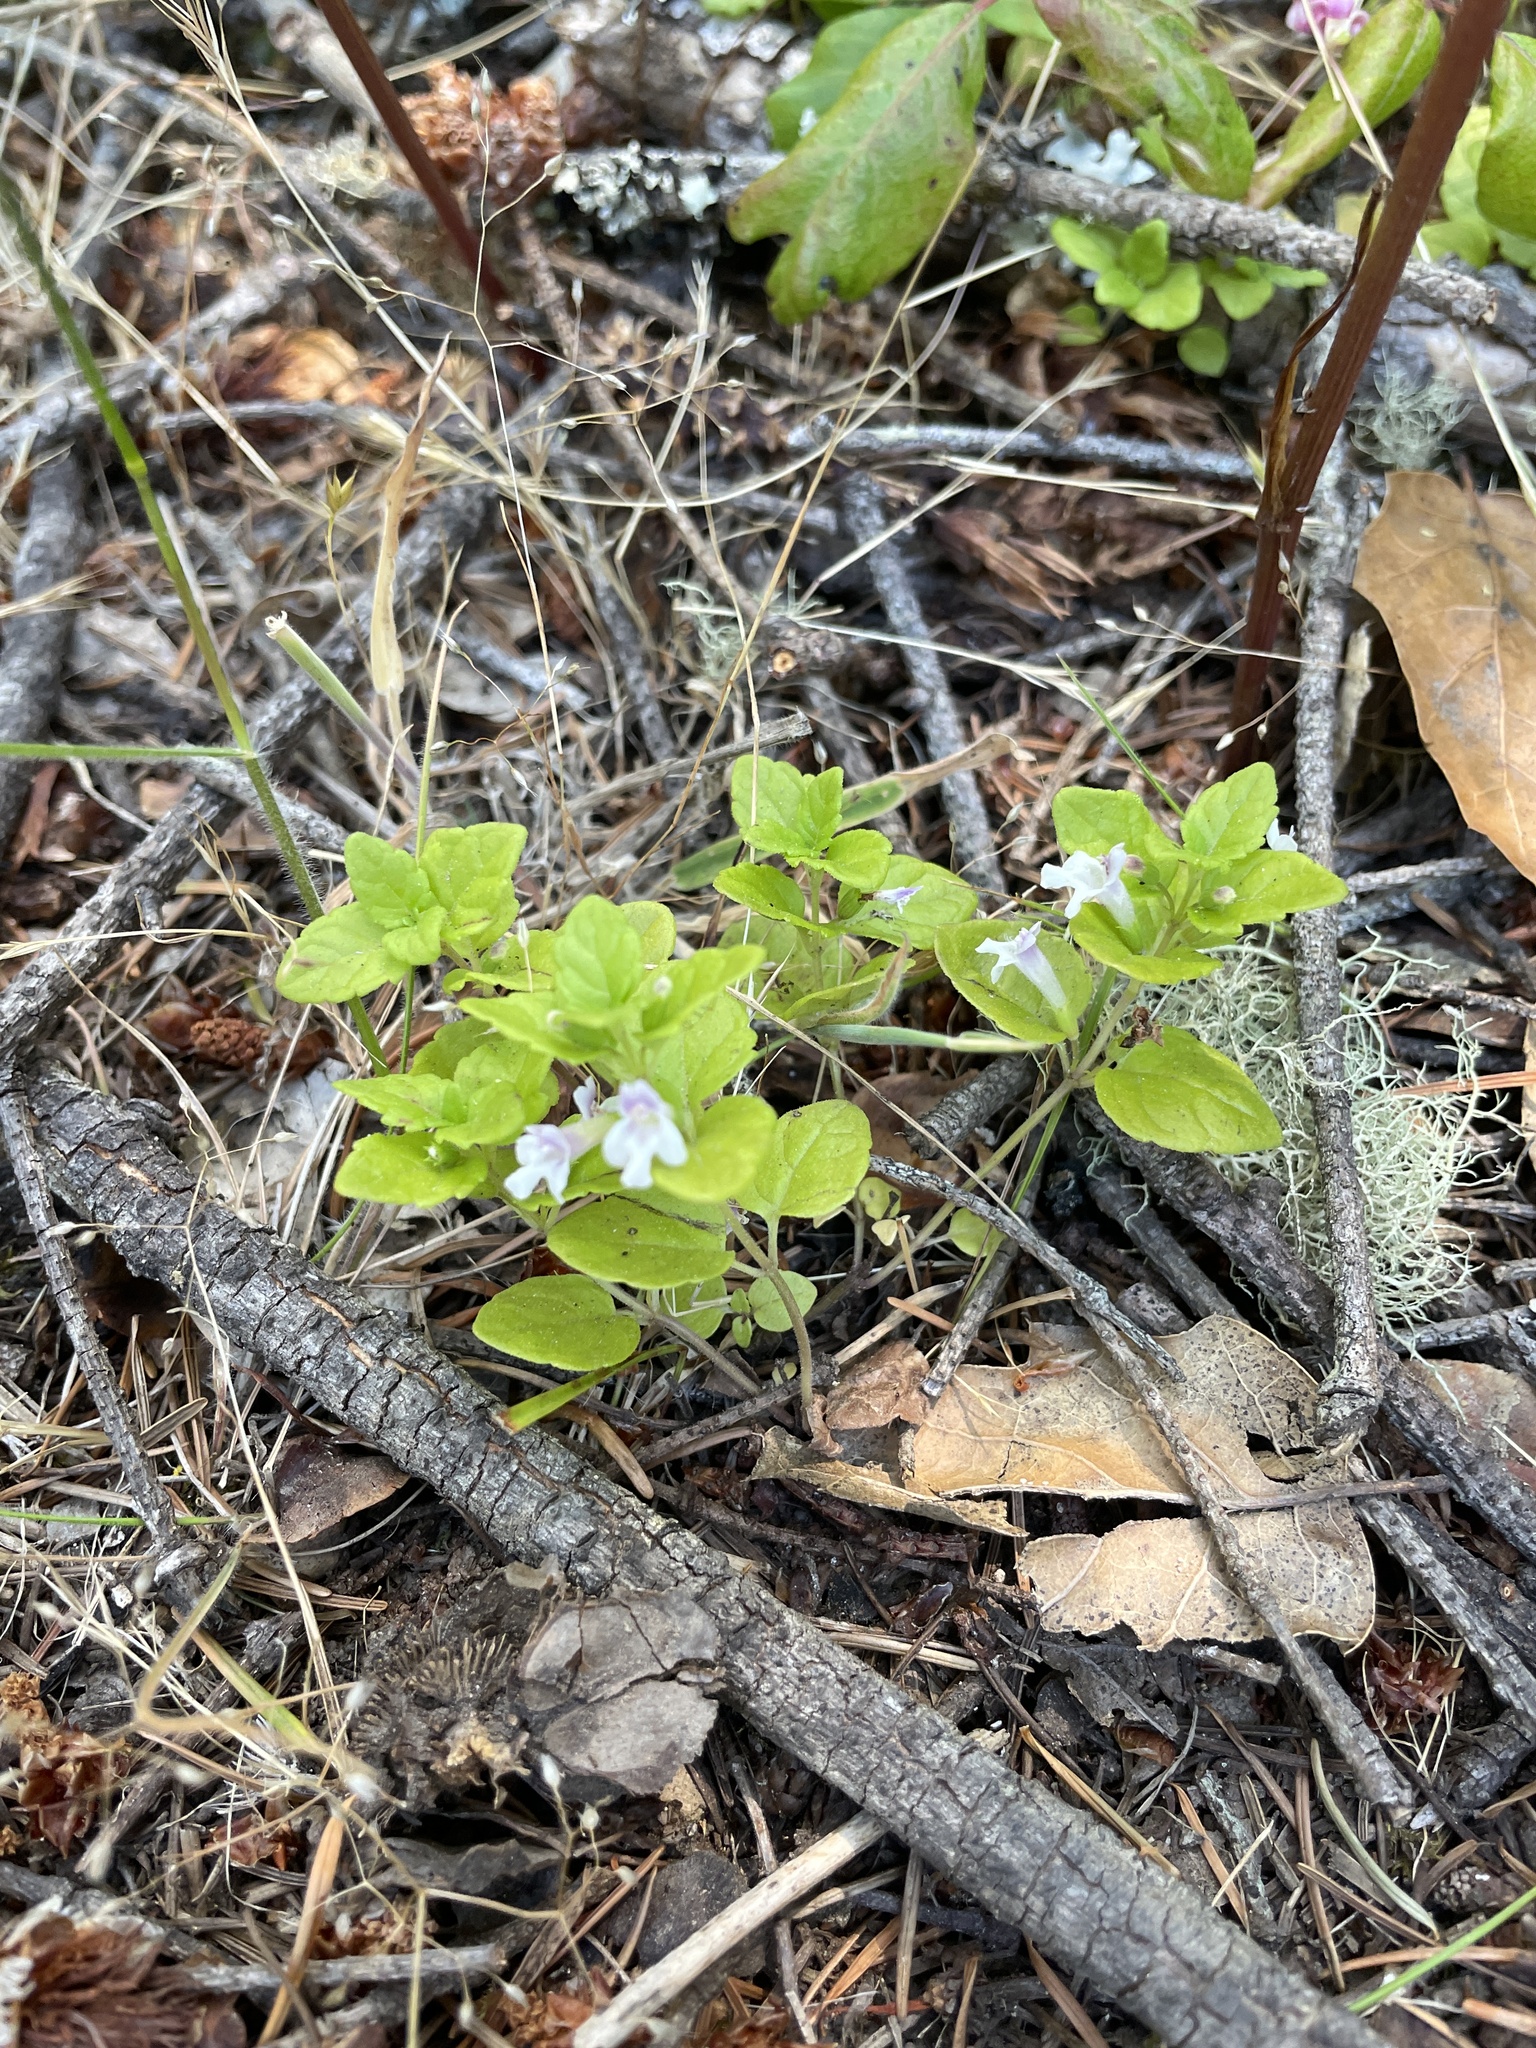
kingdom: Plantae
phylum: Tracheophyta
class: Magnoliopsida
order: Lamiales
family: Lamiaceae
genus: Micromeria
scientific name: Micromeria douglasii
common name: Yerba buena
